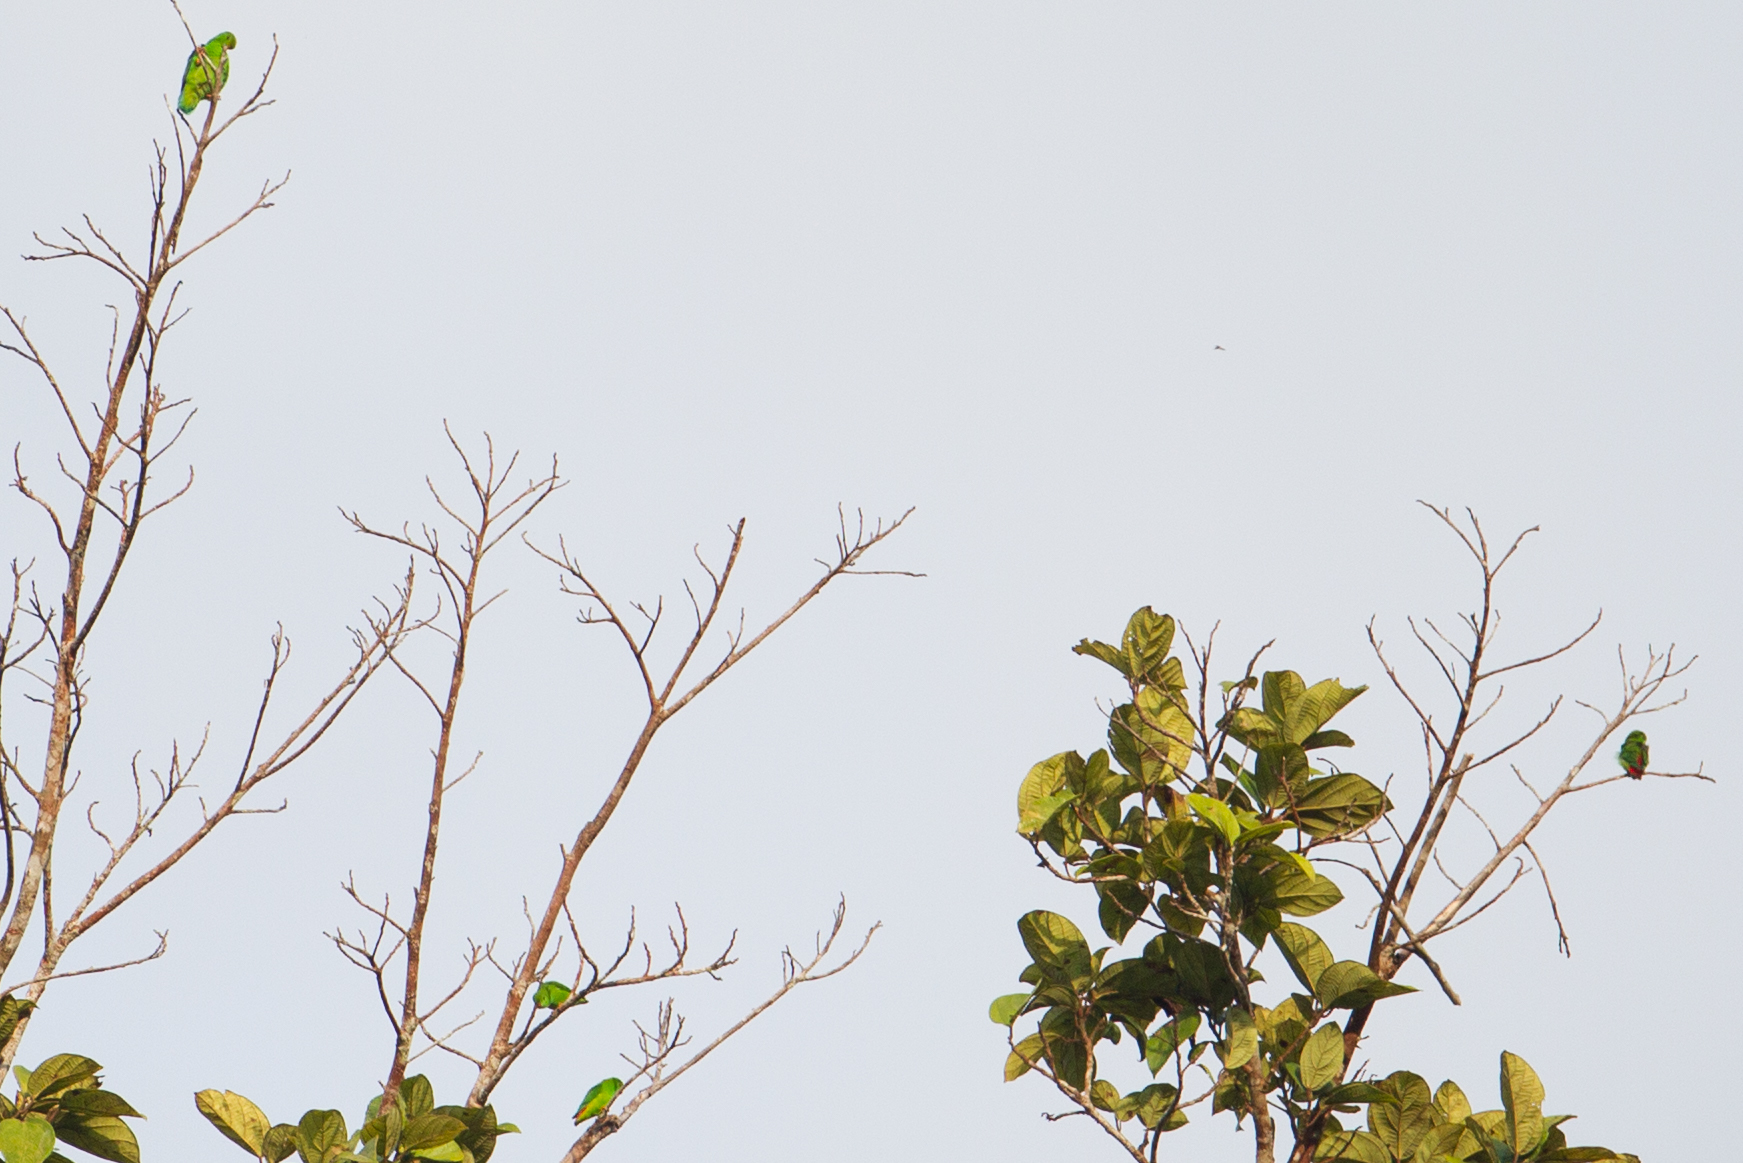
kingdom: Animalia
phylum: Chordata
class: Aves
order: Psittaciformes
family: Psittacidae
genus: Loriculus
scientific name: Loriculus stigmatus
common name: Great hanging parrot
